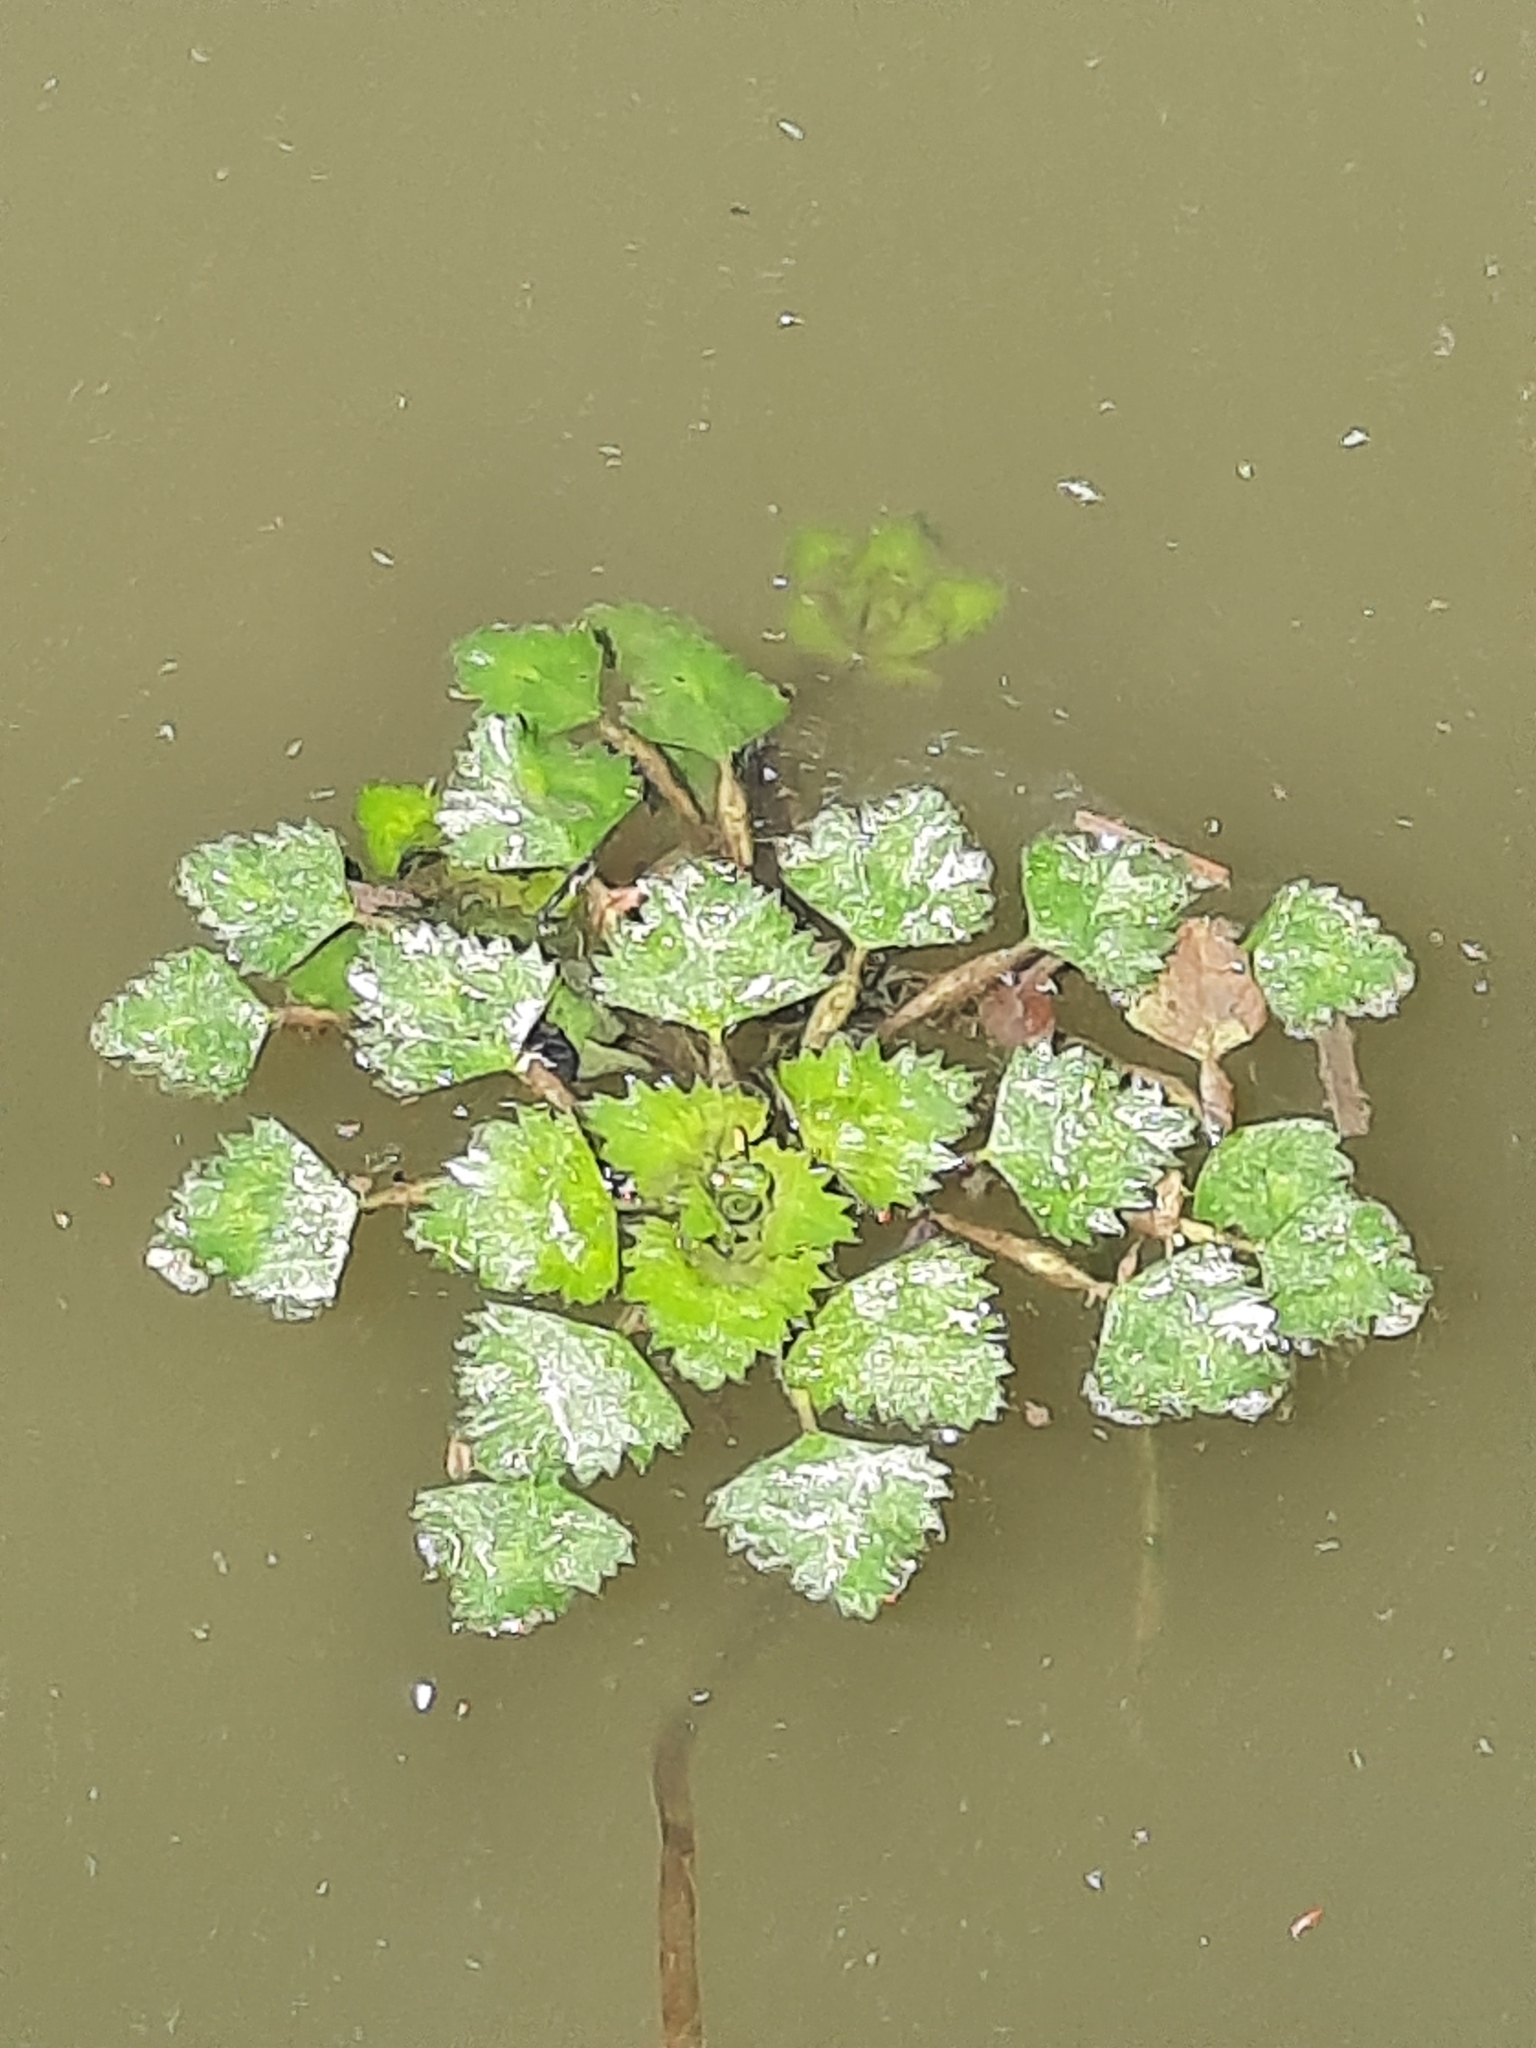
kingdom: Plantae
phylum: Tracheophyta
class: Magnoliopsida
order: Myrtales
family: Lythraceae
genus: Trapa
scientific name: Trapa natans
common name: Water chestnut
